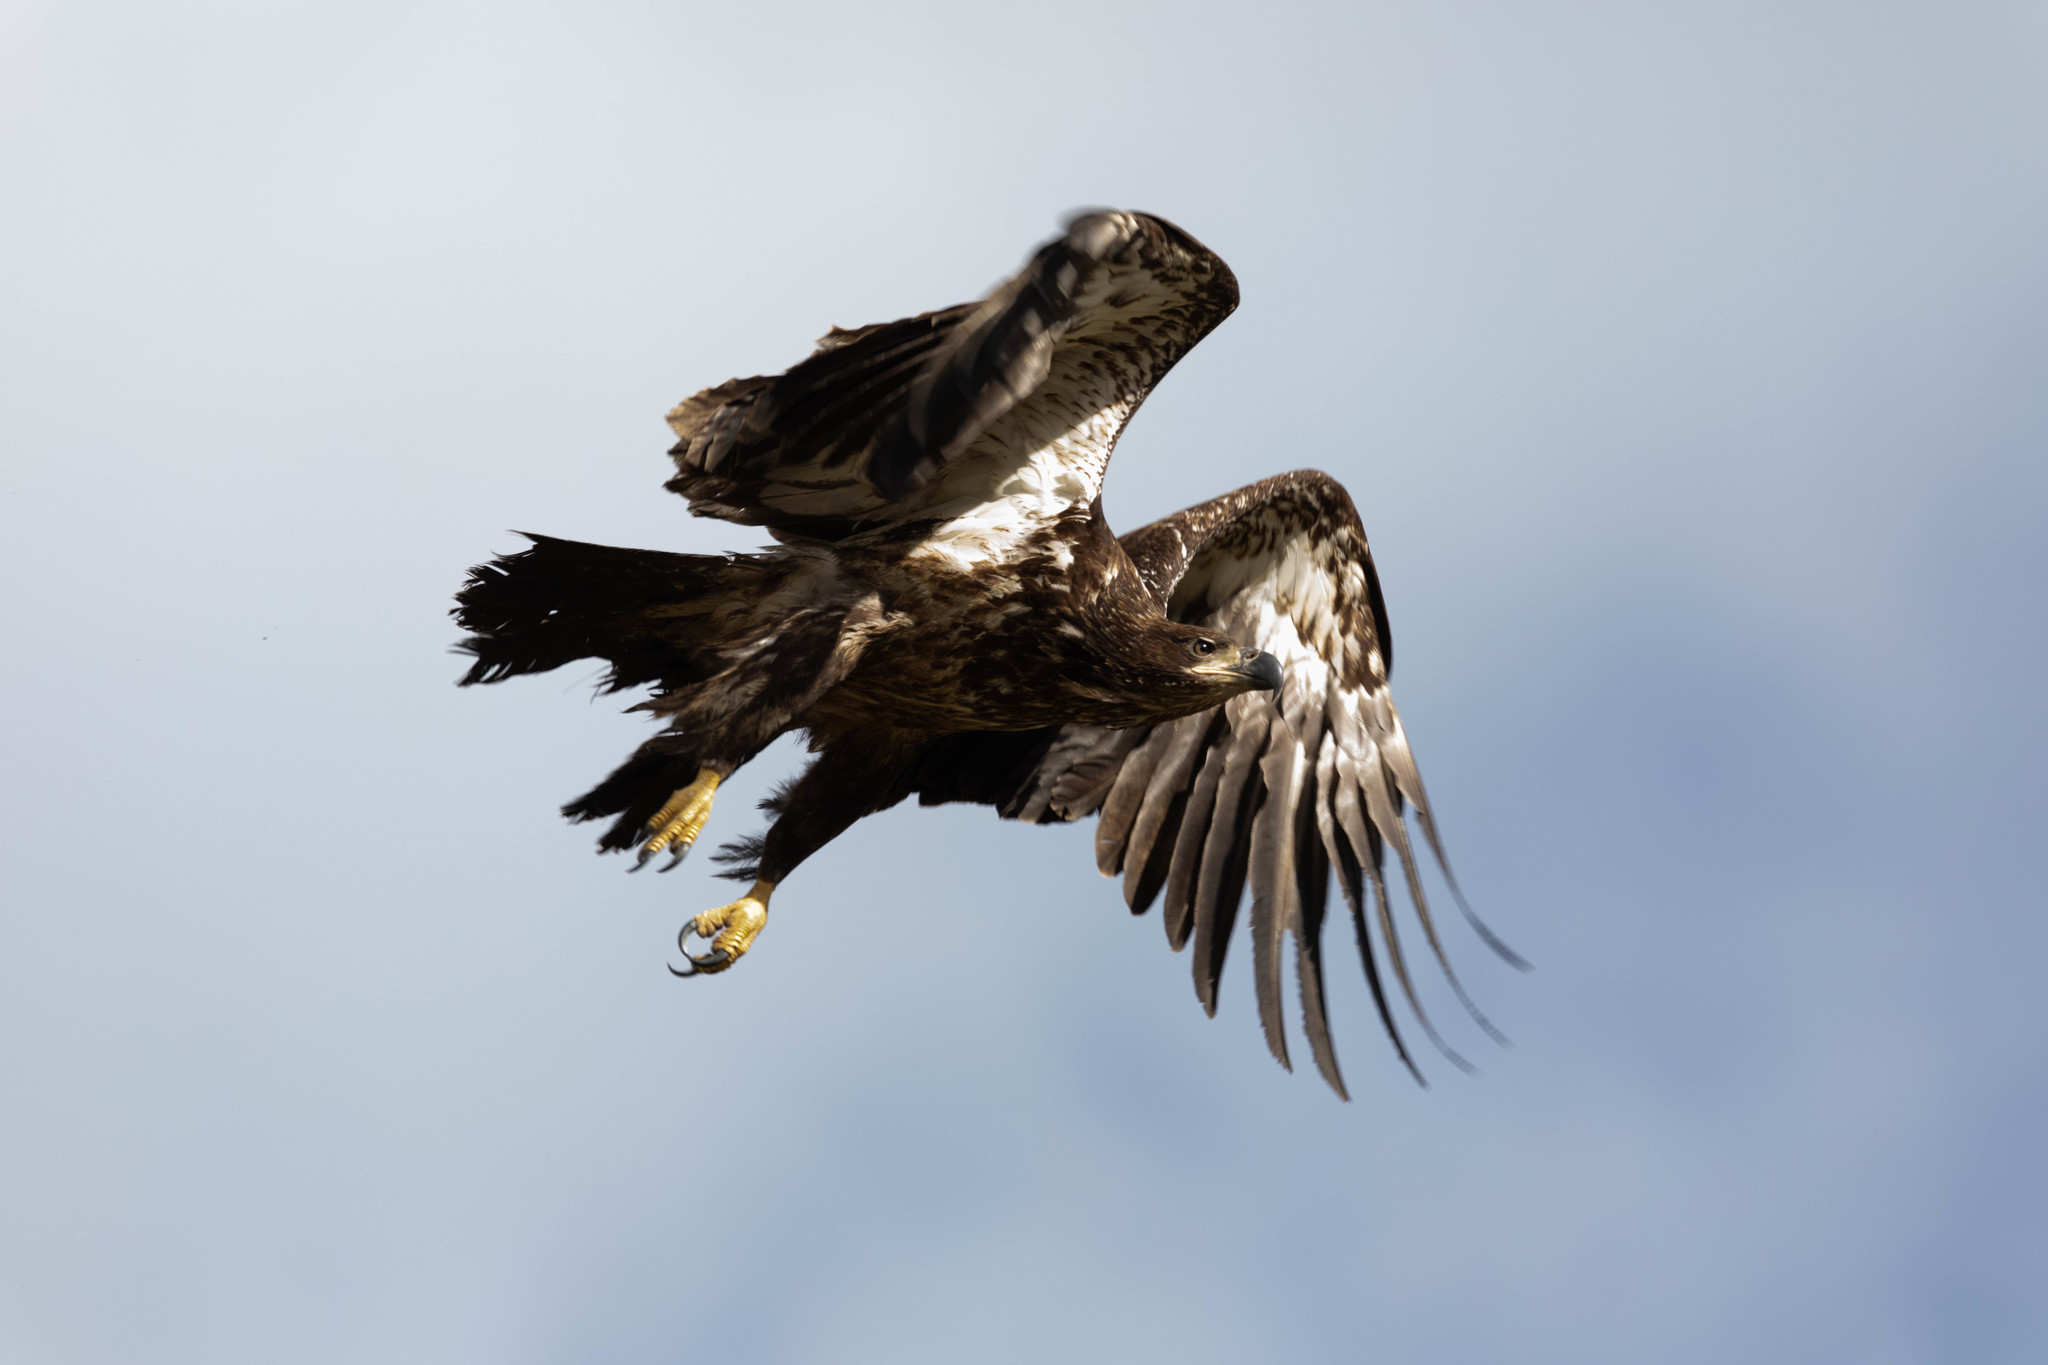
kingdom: Animalia
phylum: Chordata
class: Aves
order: Accipitriformes
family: Accipitridae
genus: Haliaeetus
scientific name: Haliaeetus leucocephalus
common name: Bald eagle
